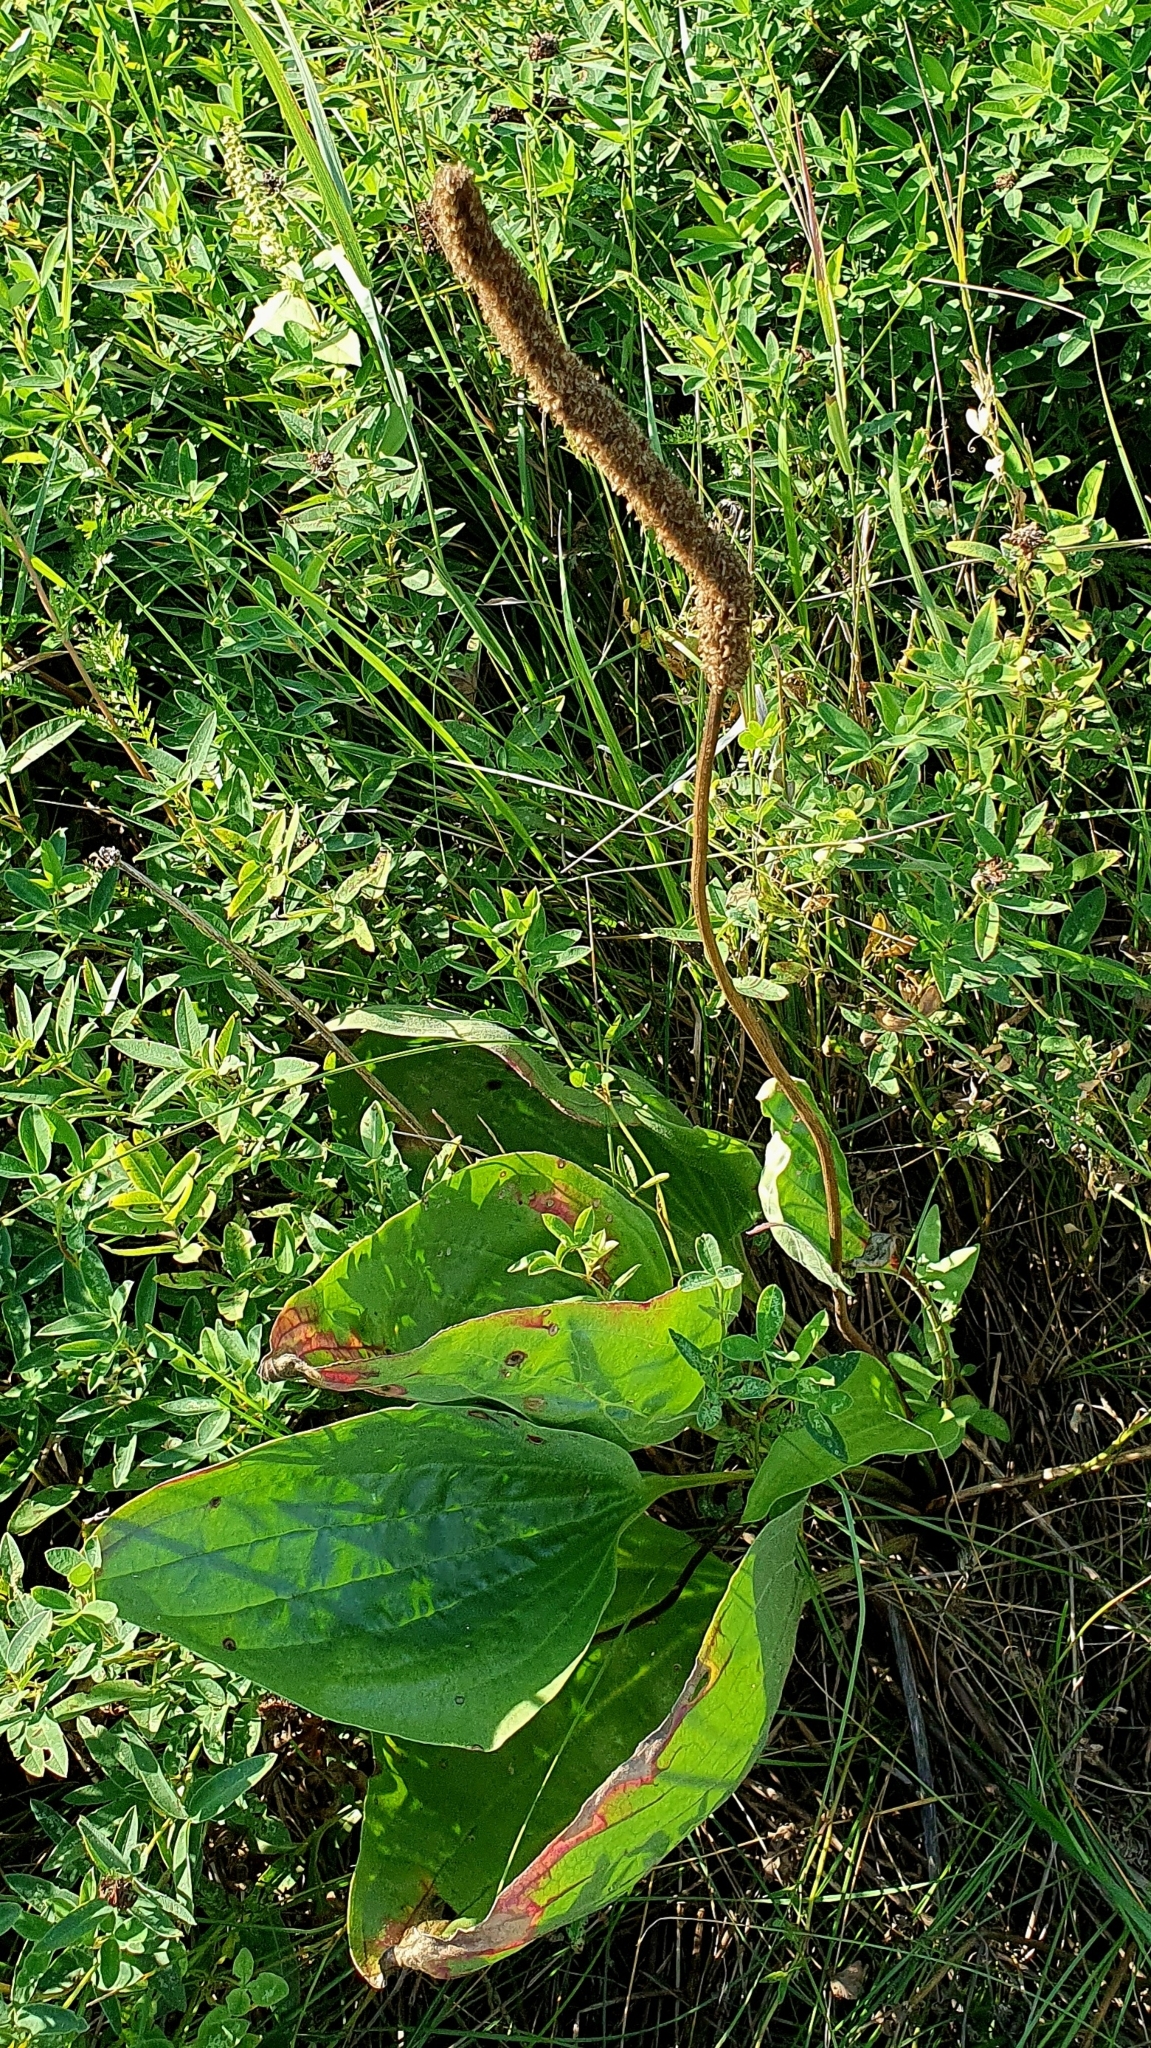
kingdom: Plantae
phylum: Tracheophyta
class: Magnoliopsida
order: Lamiales
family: Plantaginaceae
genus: Plantago
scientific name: Plantago maxima
